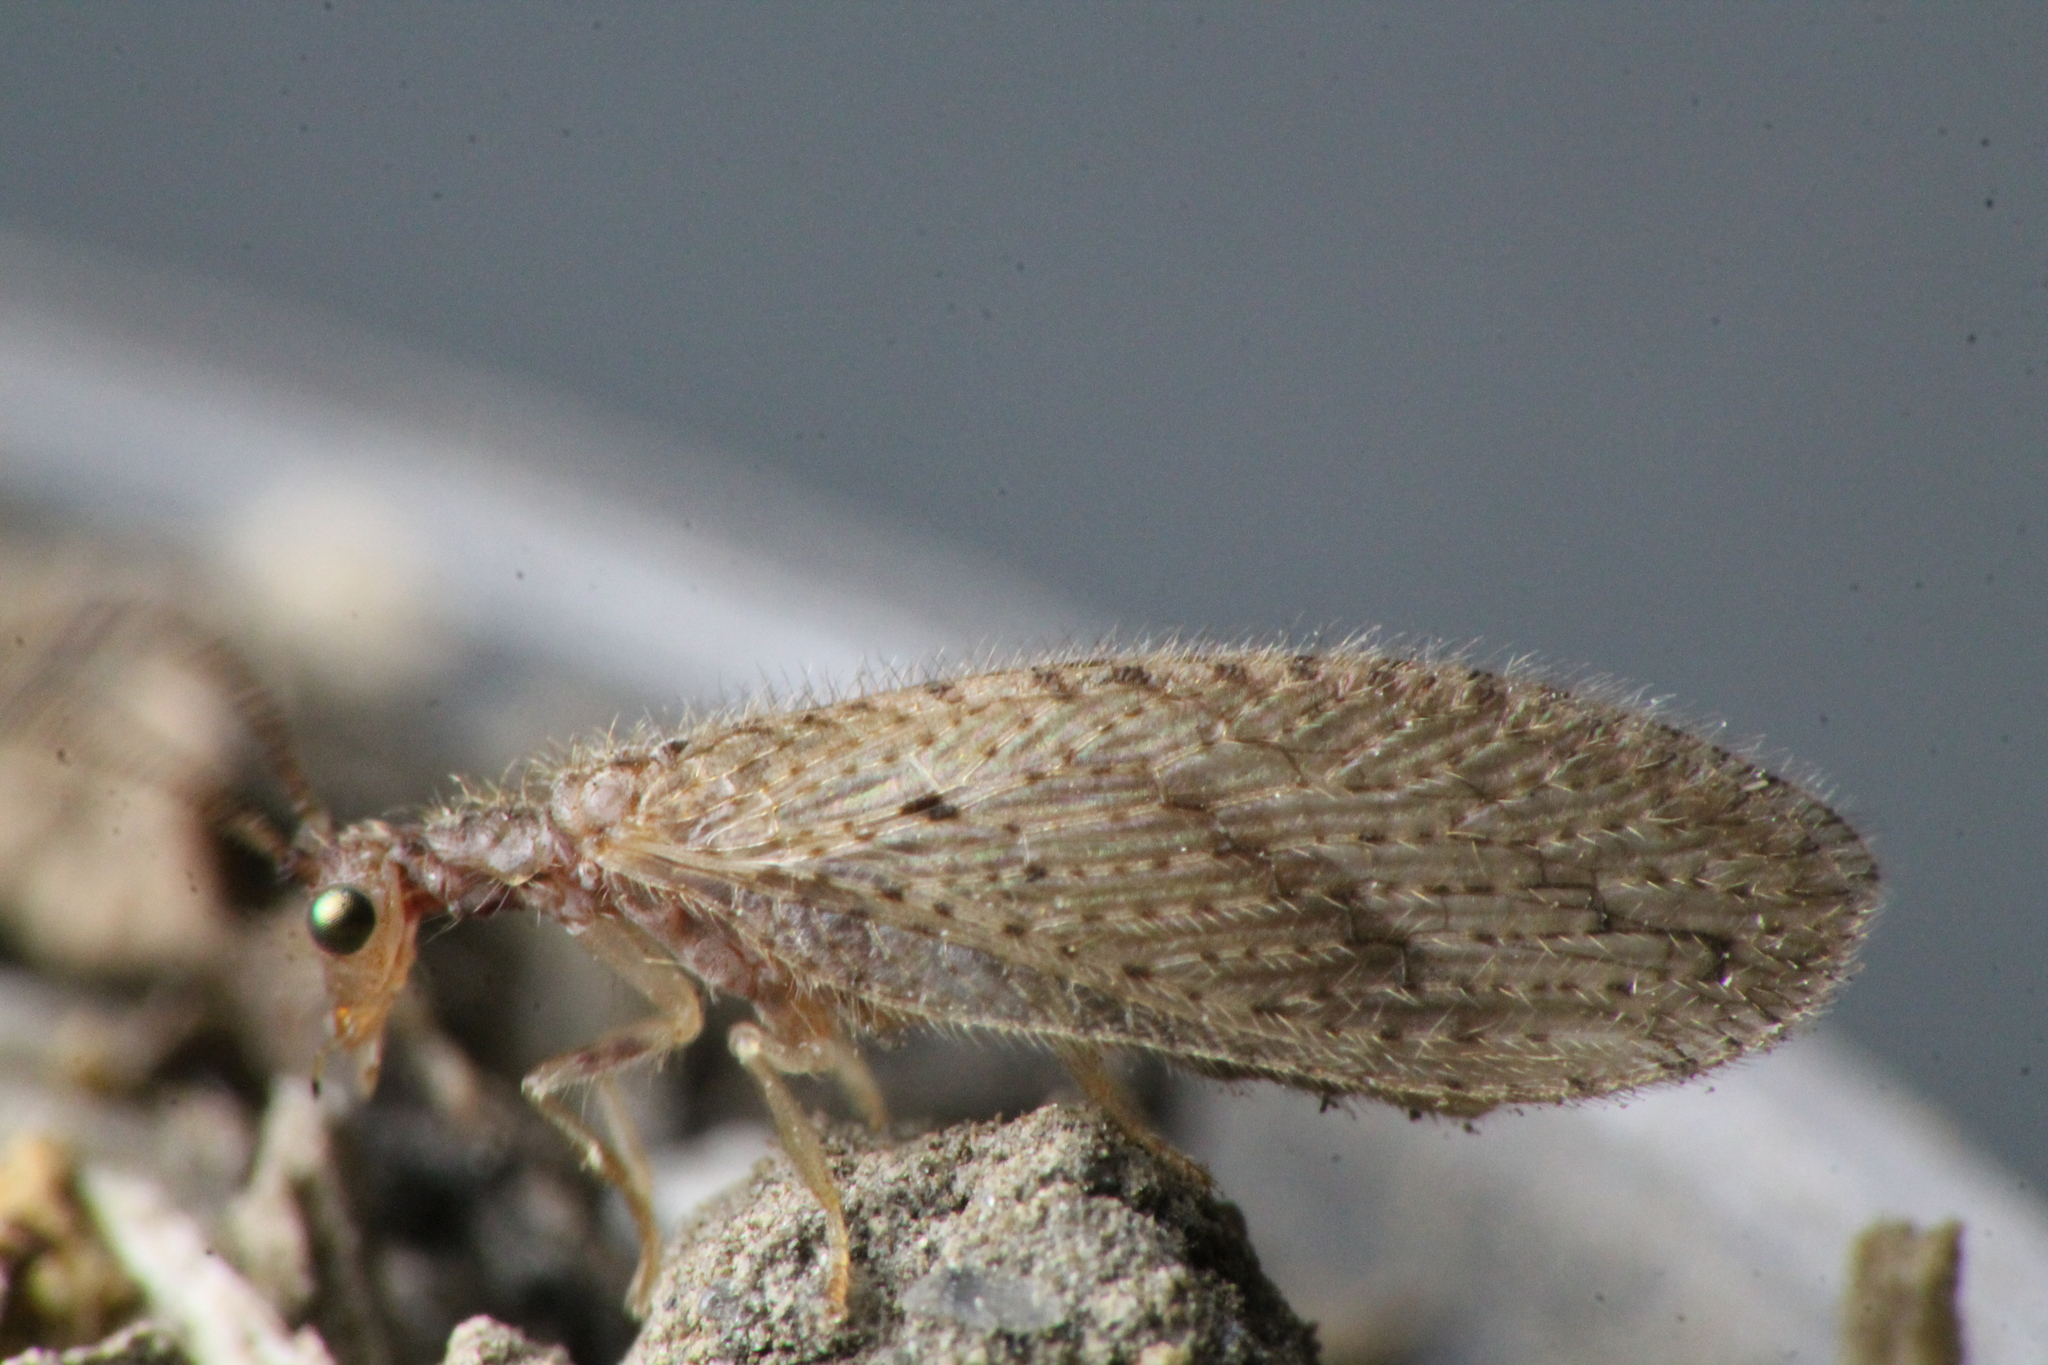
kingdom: Animalia
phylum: Arthropoda
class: Insecta
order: Neuroptera
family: Hemerobiidae
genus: Micromus
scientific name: Micromus tasmaniae
